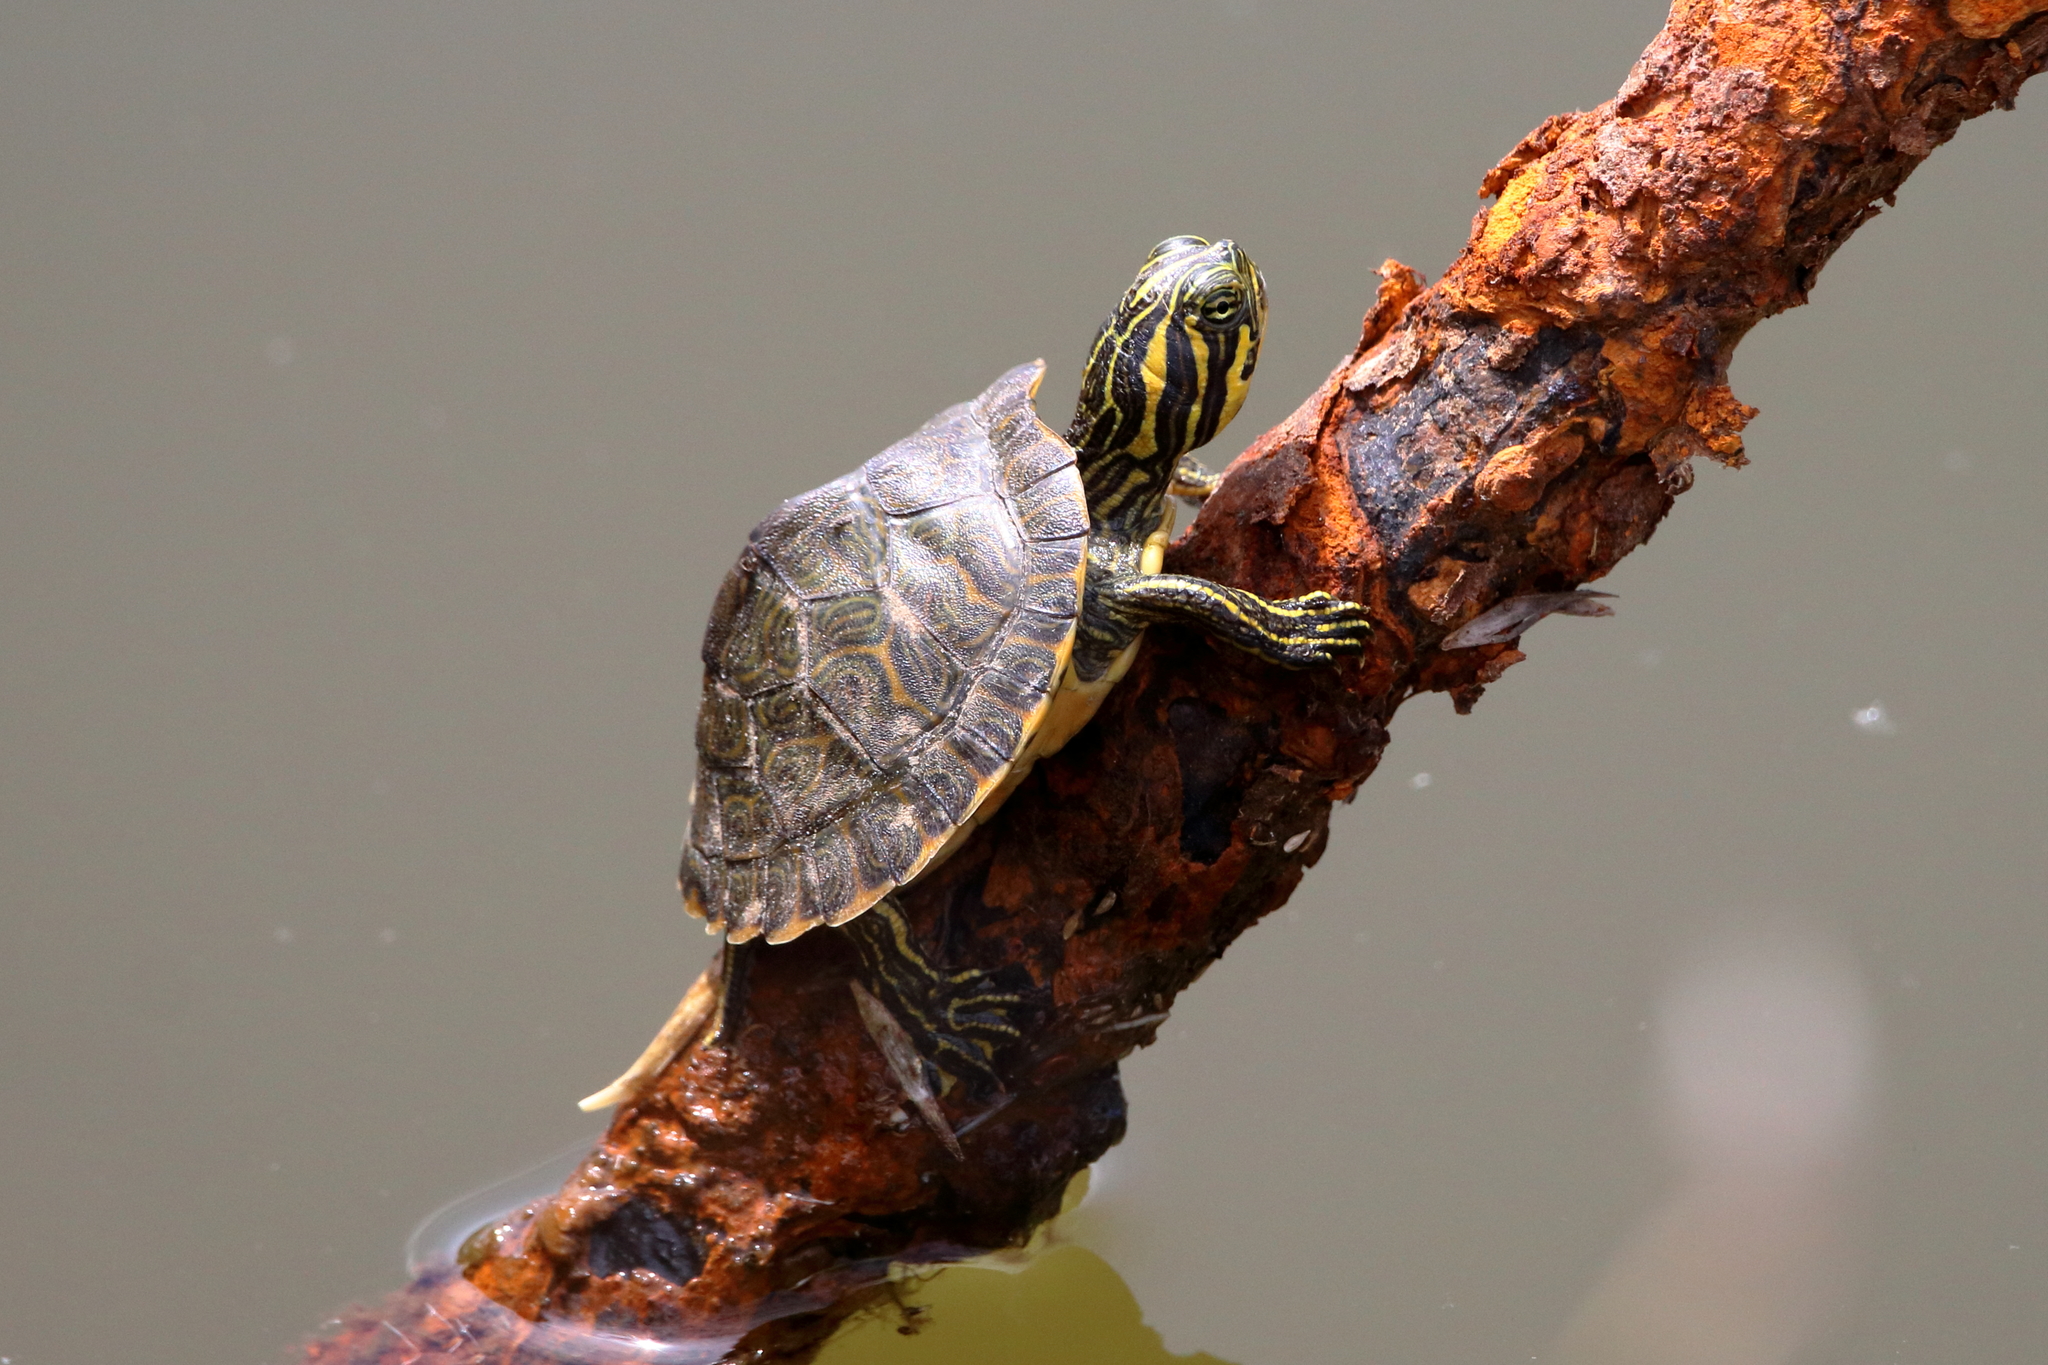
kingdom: Animalia
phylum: Chordata
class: Testudines
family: Emydidae
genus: Pseudemys
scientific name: Pseudemys concinna
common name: Eastern river cooter
